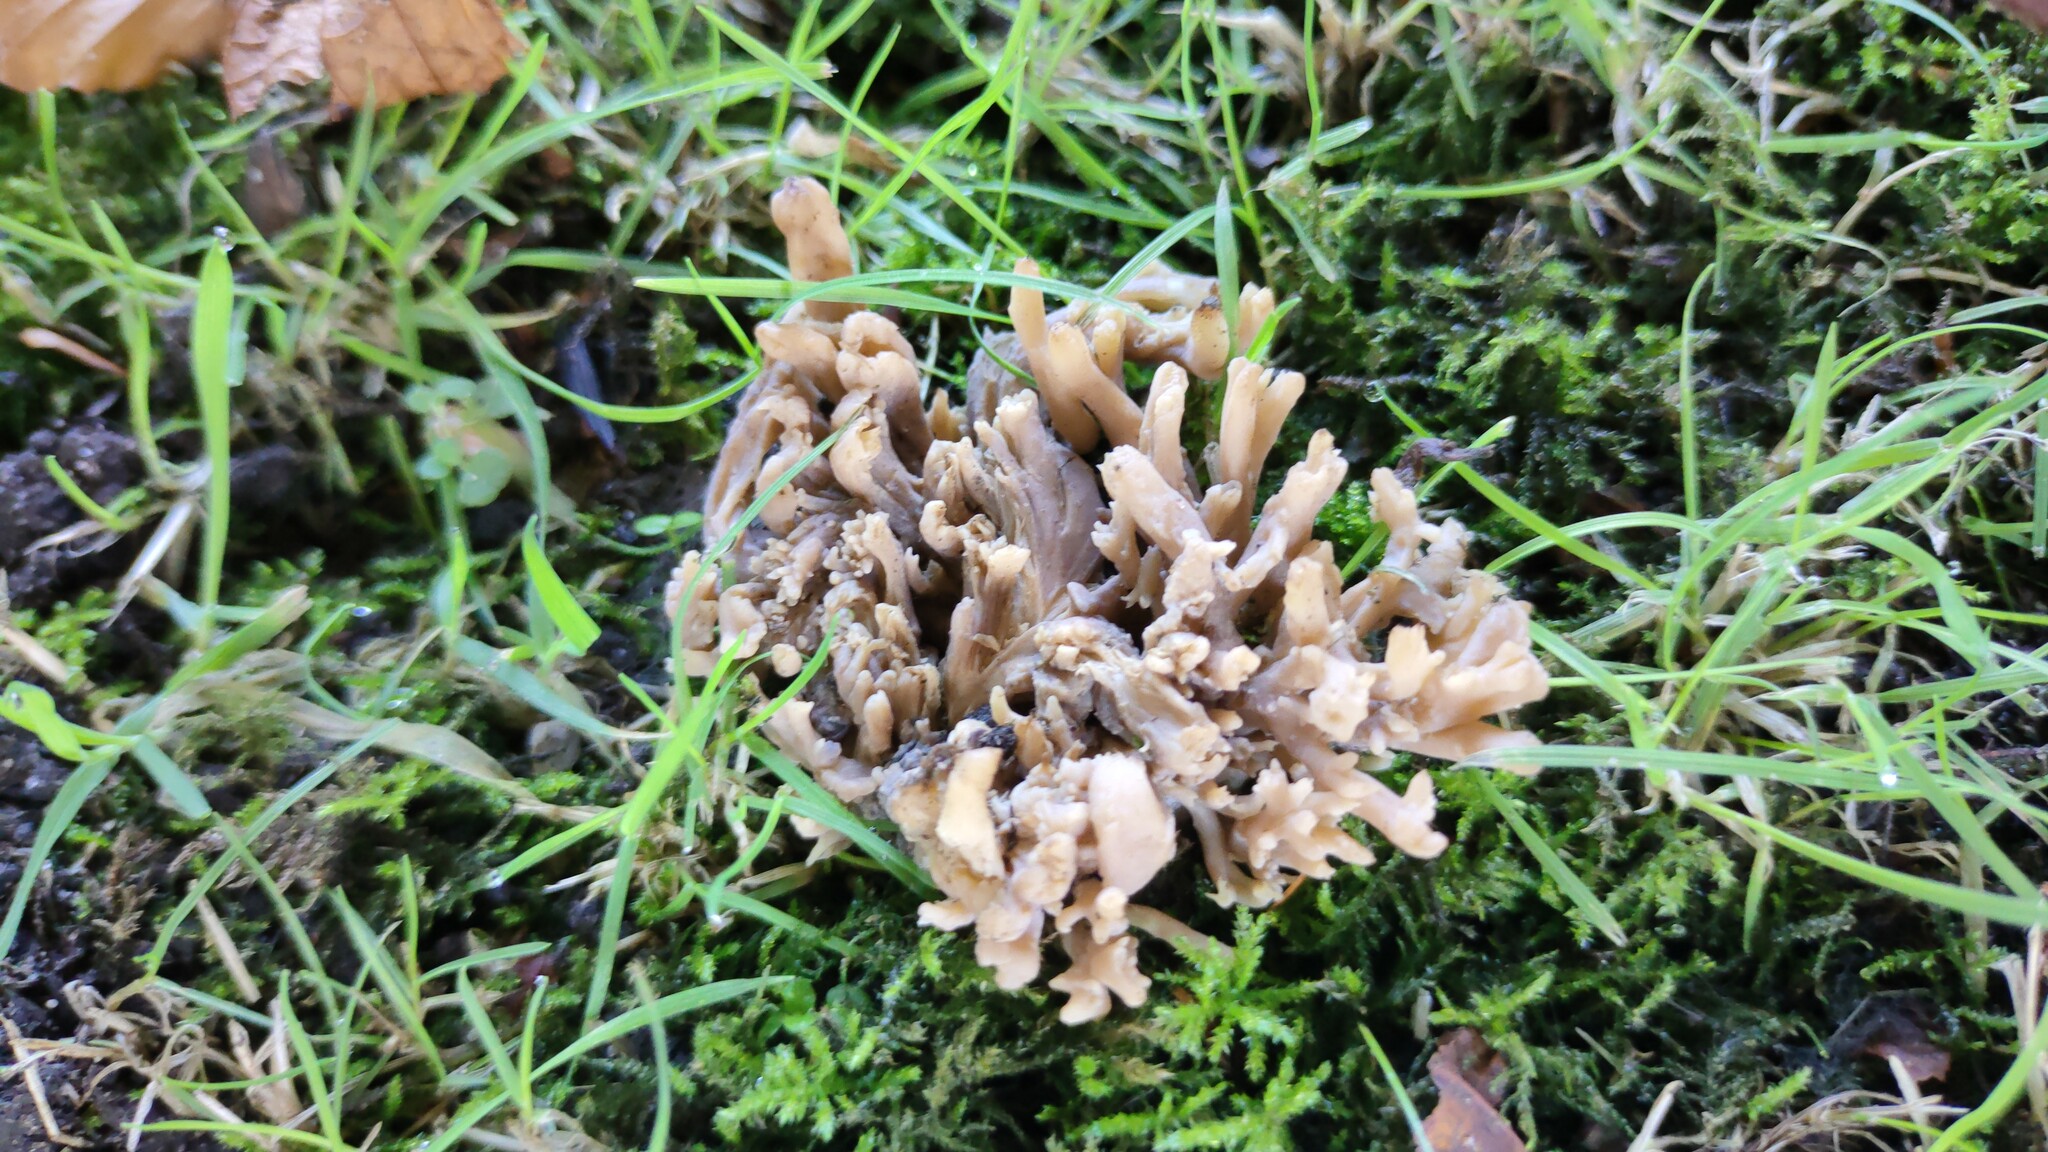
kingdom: Fungi
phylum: Basidiomycota
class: Agaricomycetes
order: Agaricales
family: Clavariaceae
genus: Clavulinopsis
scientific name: Clavulinopsis umbrinella
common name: Beige coral
